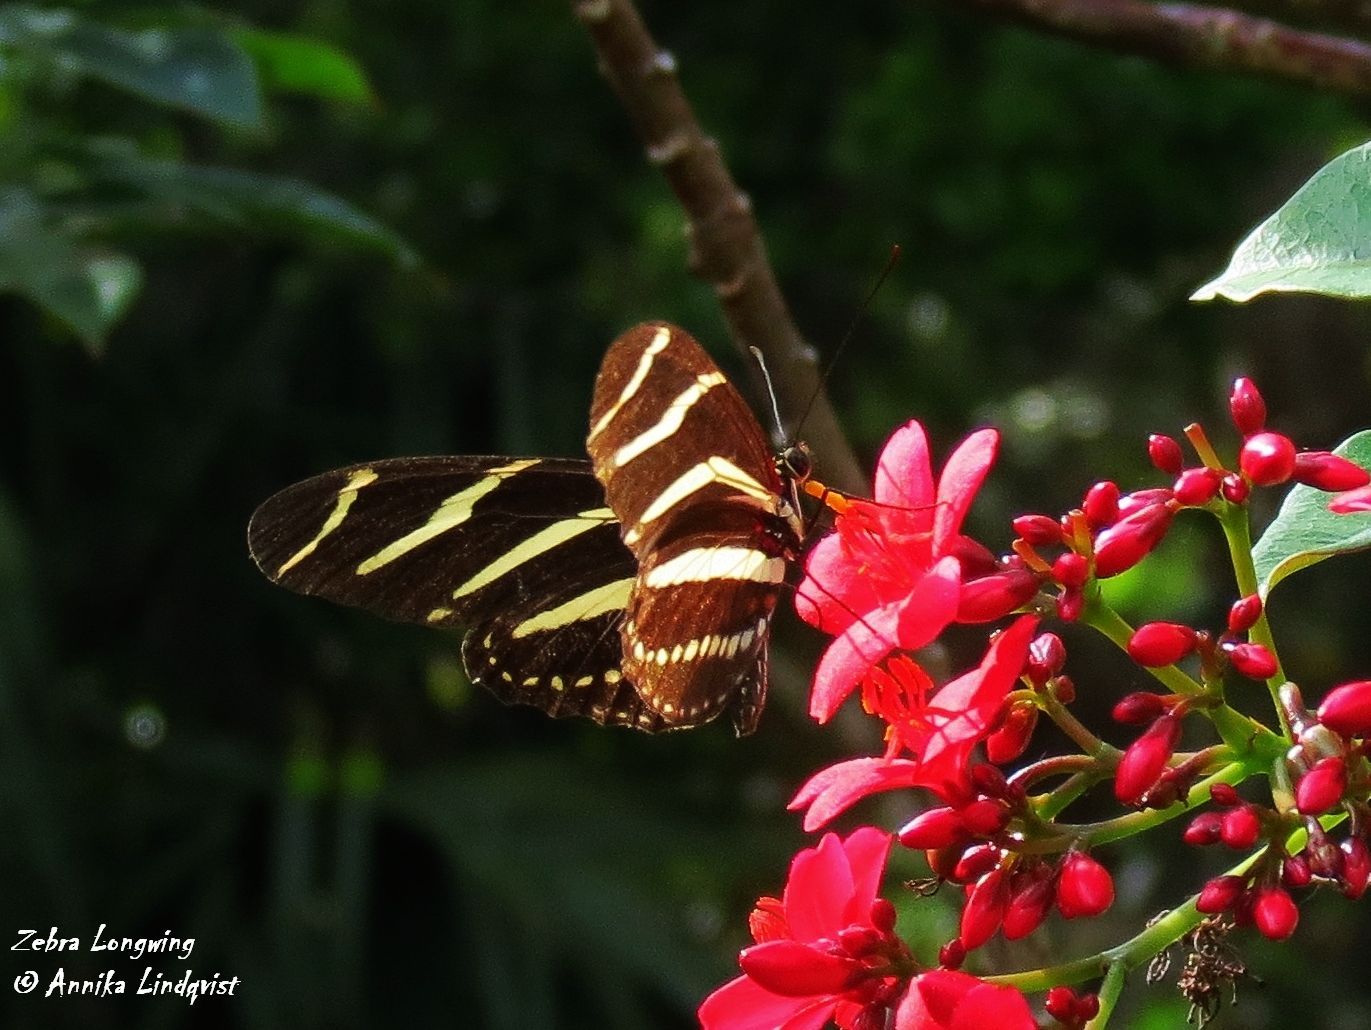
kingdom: Animalia
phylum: Arthropoda
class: Insecta
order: Lepidoptera
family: Nymphalidae
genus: Heliconius
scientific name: Heliconius charithonia
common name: Zebra long wing
